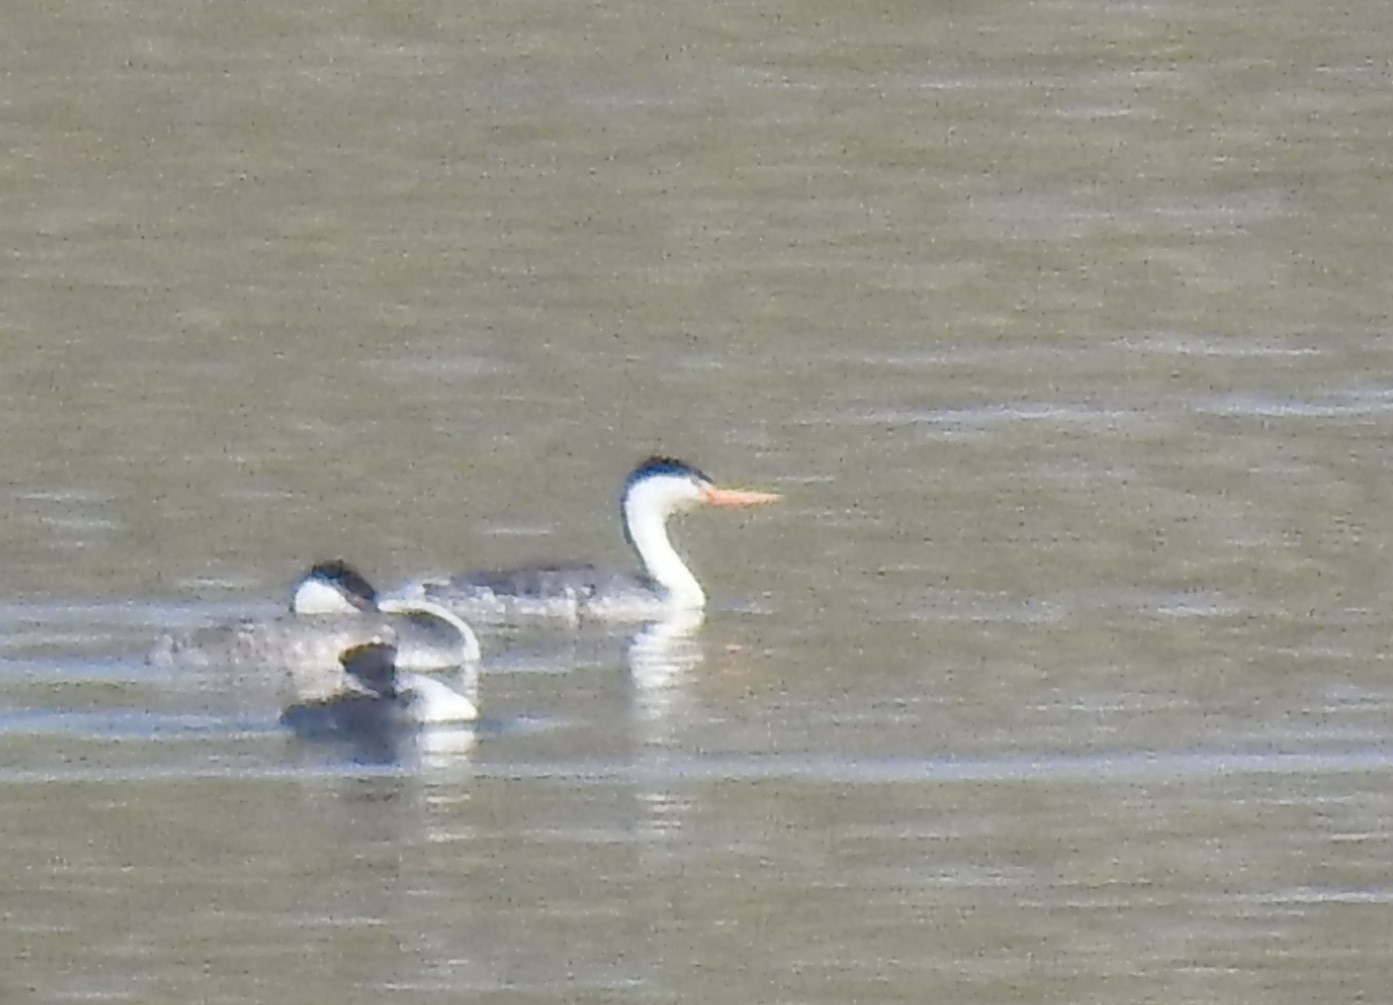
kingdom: Animalia
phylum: Chordata
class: Aves
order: Podicipediformes
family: Podicipedidae
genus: Aechmophorus
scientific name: Aechmophorus clarkii
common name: Clark's grebe
